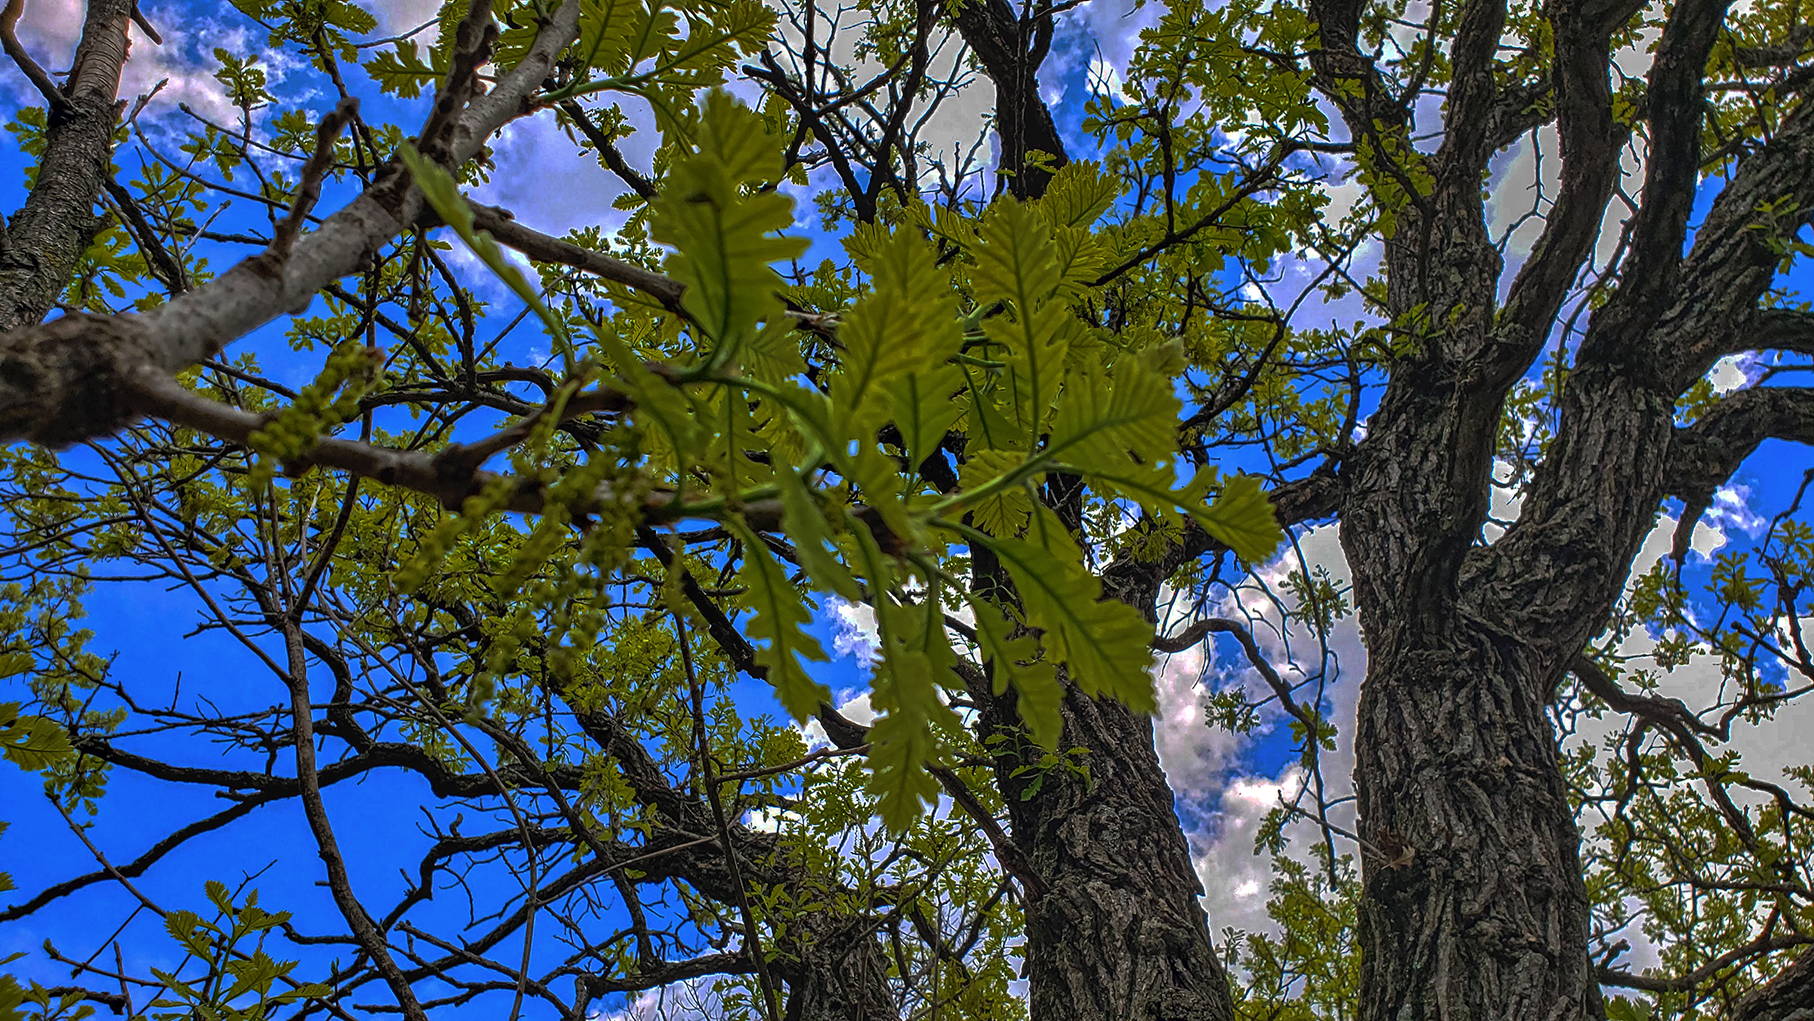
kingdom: Plantae
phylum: Tracheophyta
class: Magnoliopsida
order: Fagales
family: Fagaceae
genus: Quercus
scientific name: Quercus macrocarpa
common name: Bur oak
